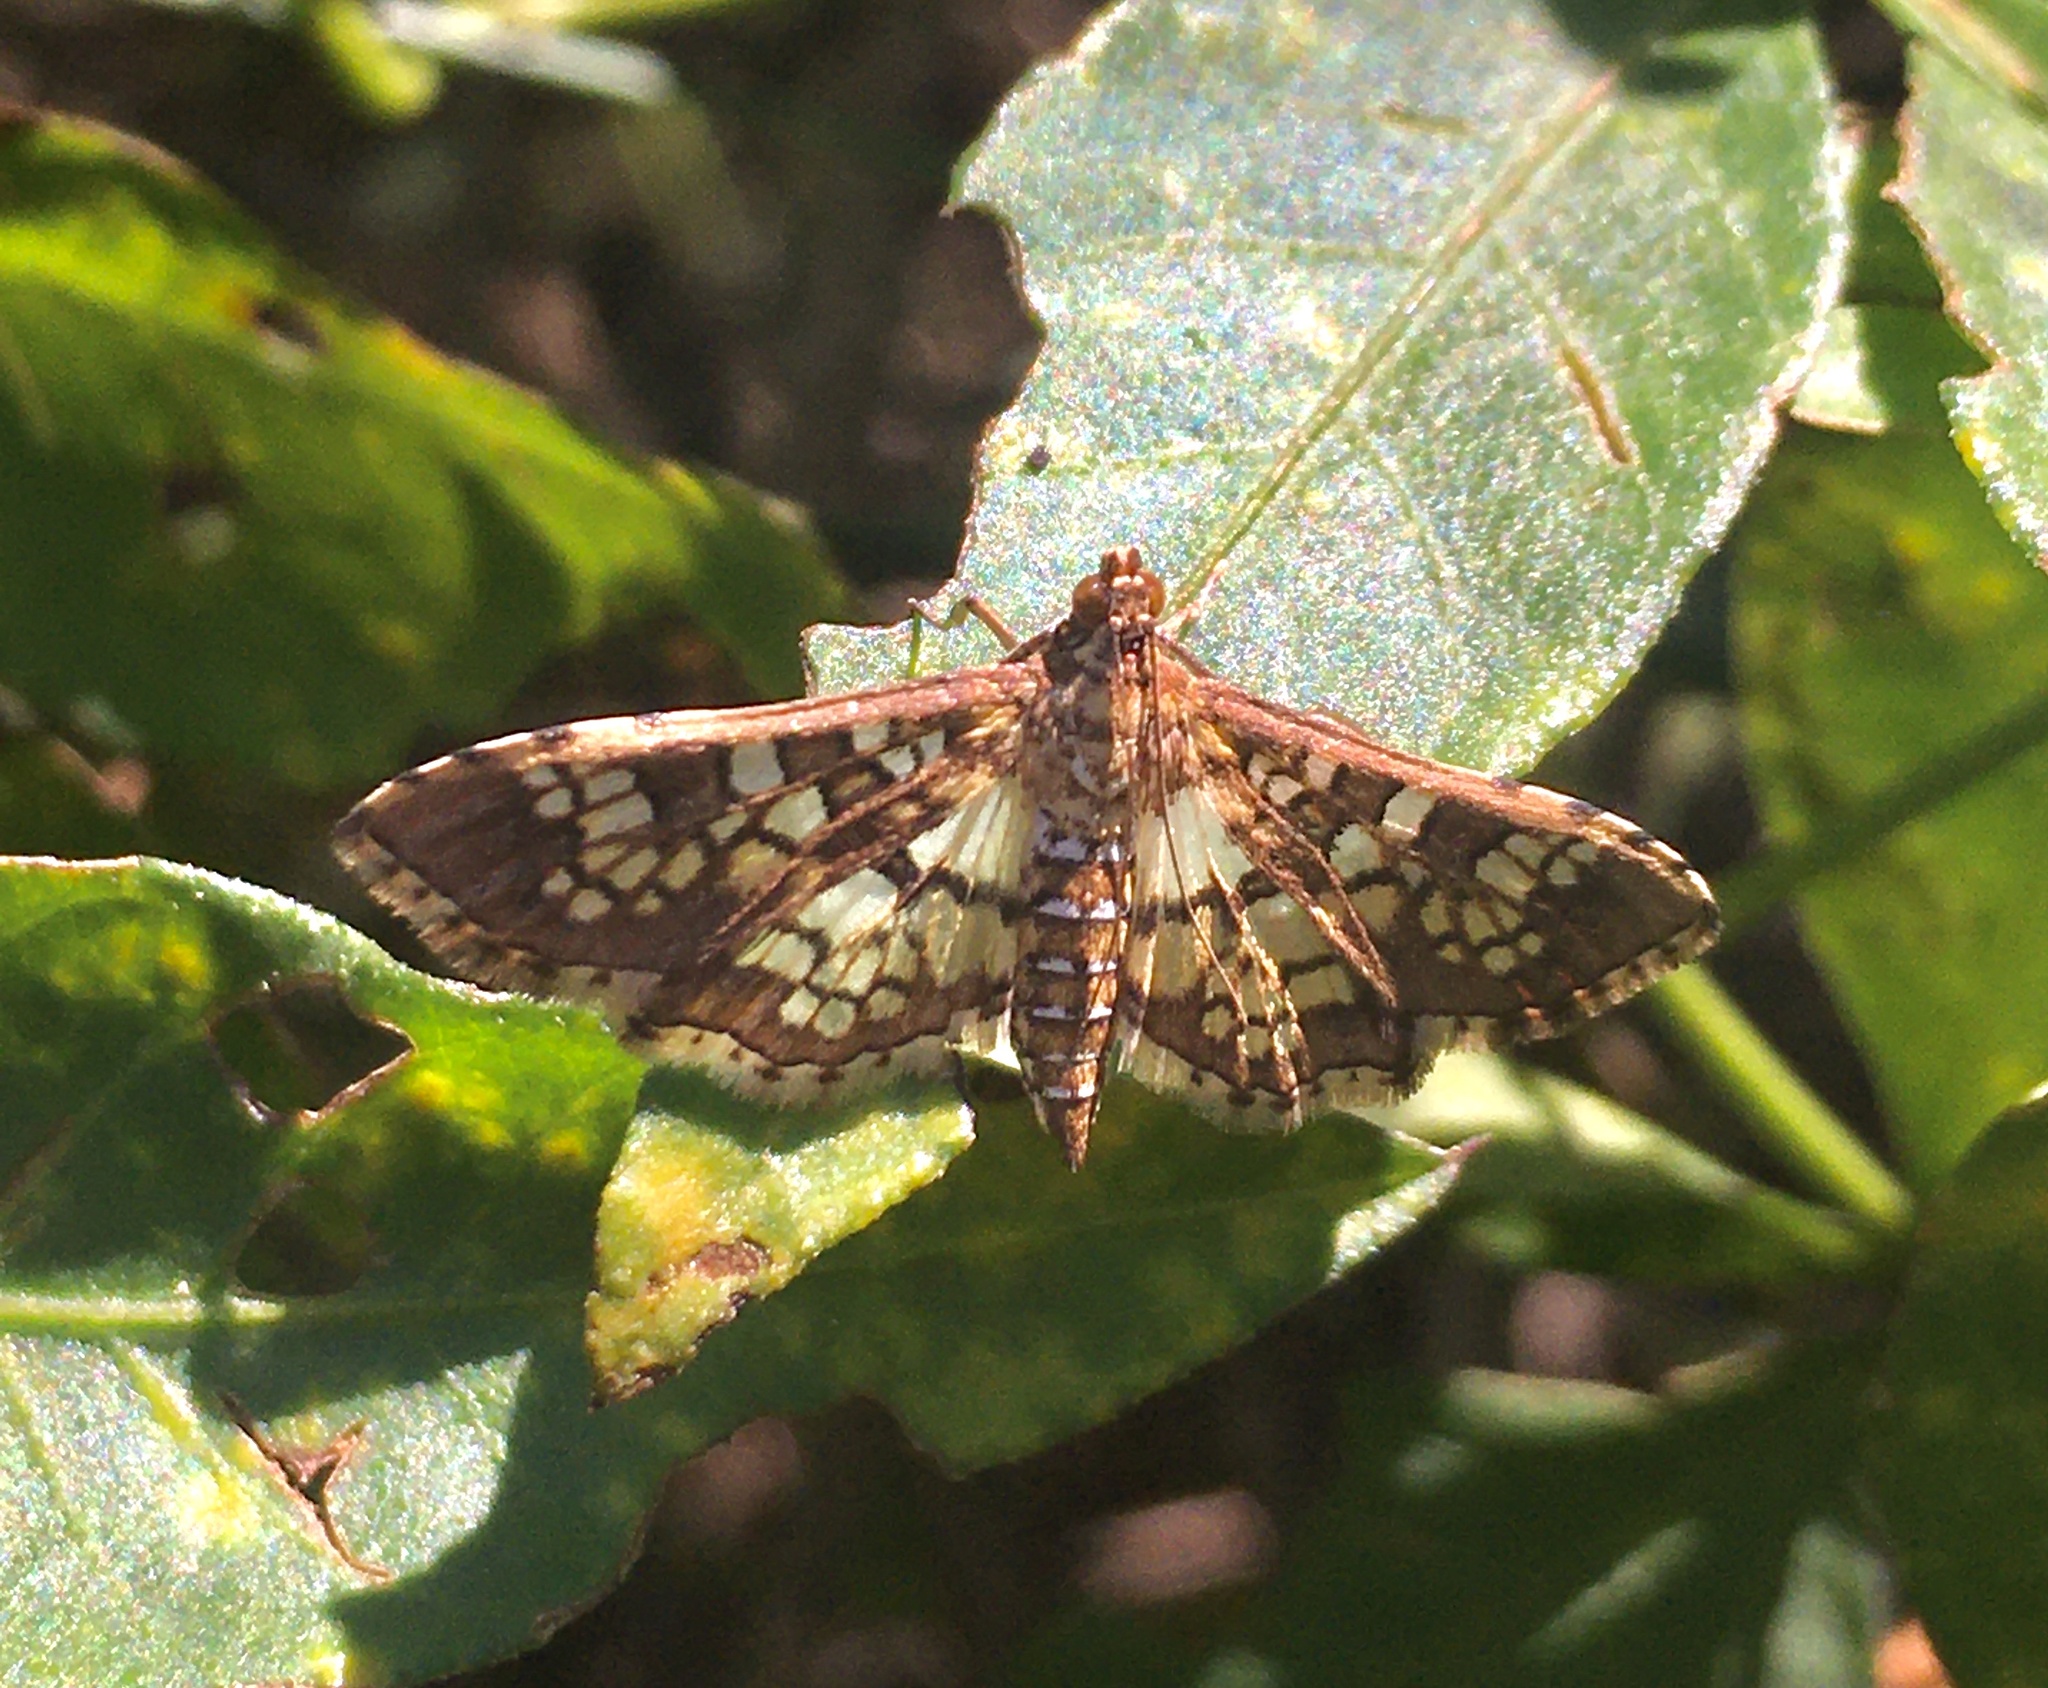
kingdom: Animalia
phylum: Arthropoda
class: Insecta
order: Lepidoptera
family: Crambidae
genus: Samea
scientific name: Samea ecclesialis
